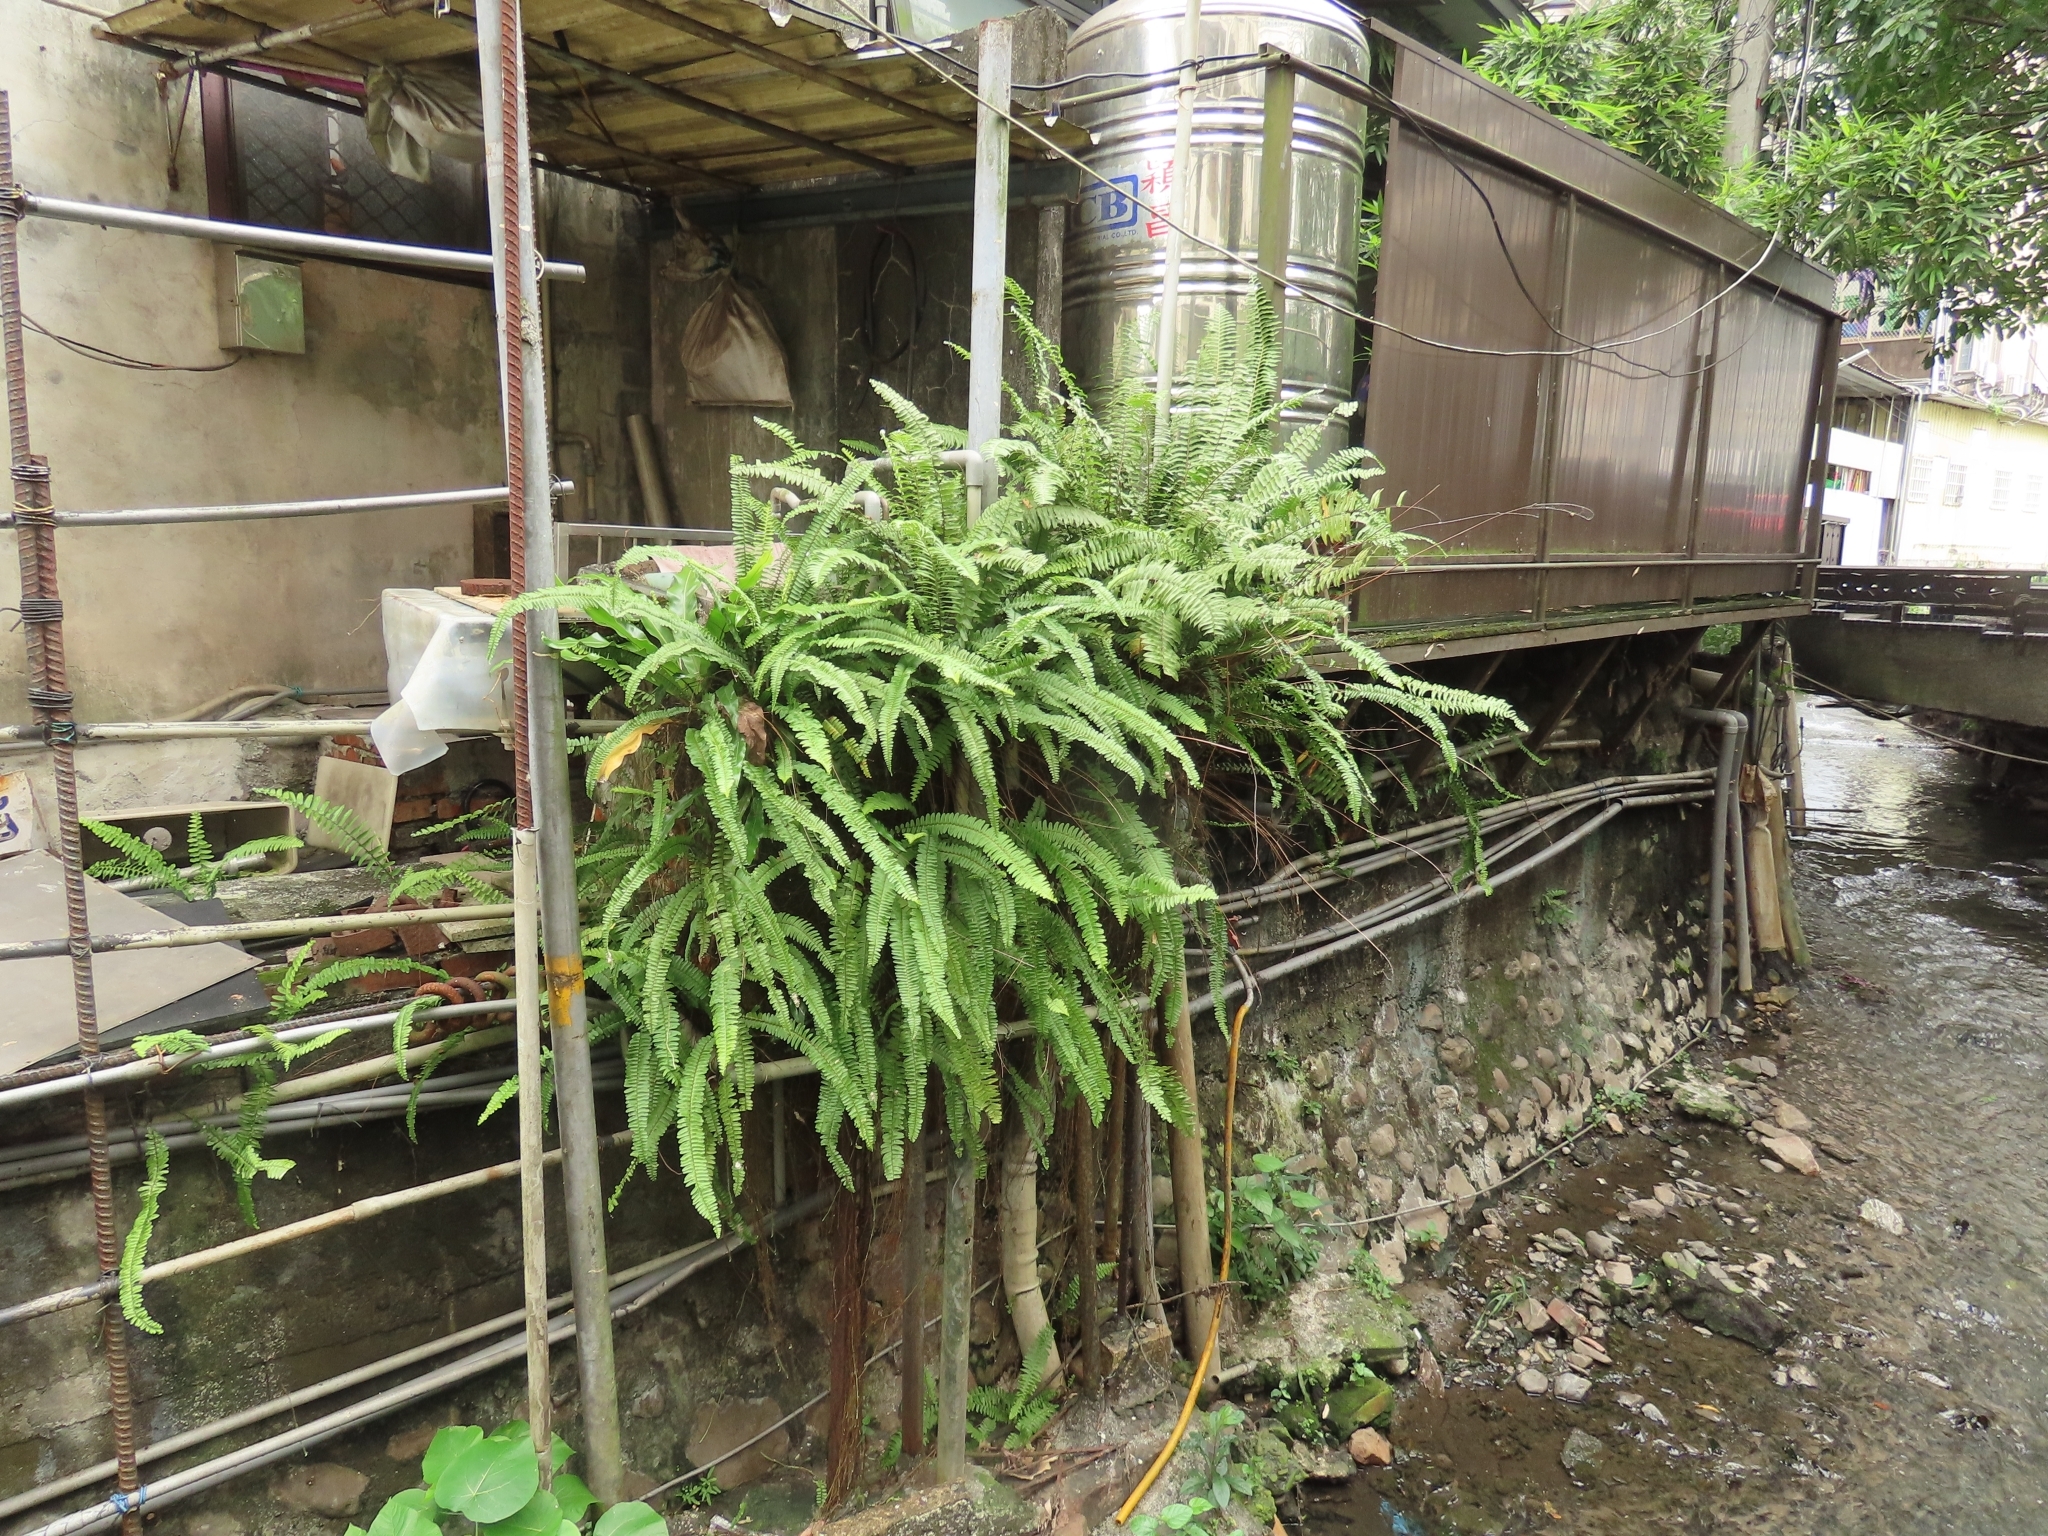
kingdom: Plantae
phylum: Tracheophyta
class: Polypodiopsida
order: Polypodiales
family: Nephrolepidaceae
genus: Nephrolepis
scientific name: Nephrolepis cordifolia
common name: Narrow swordfern
